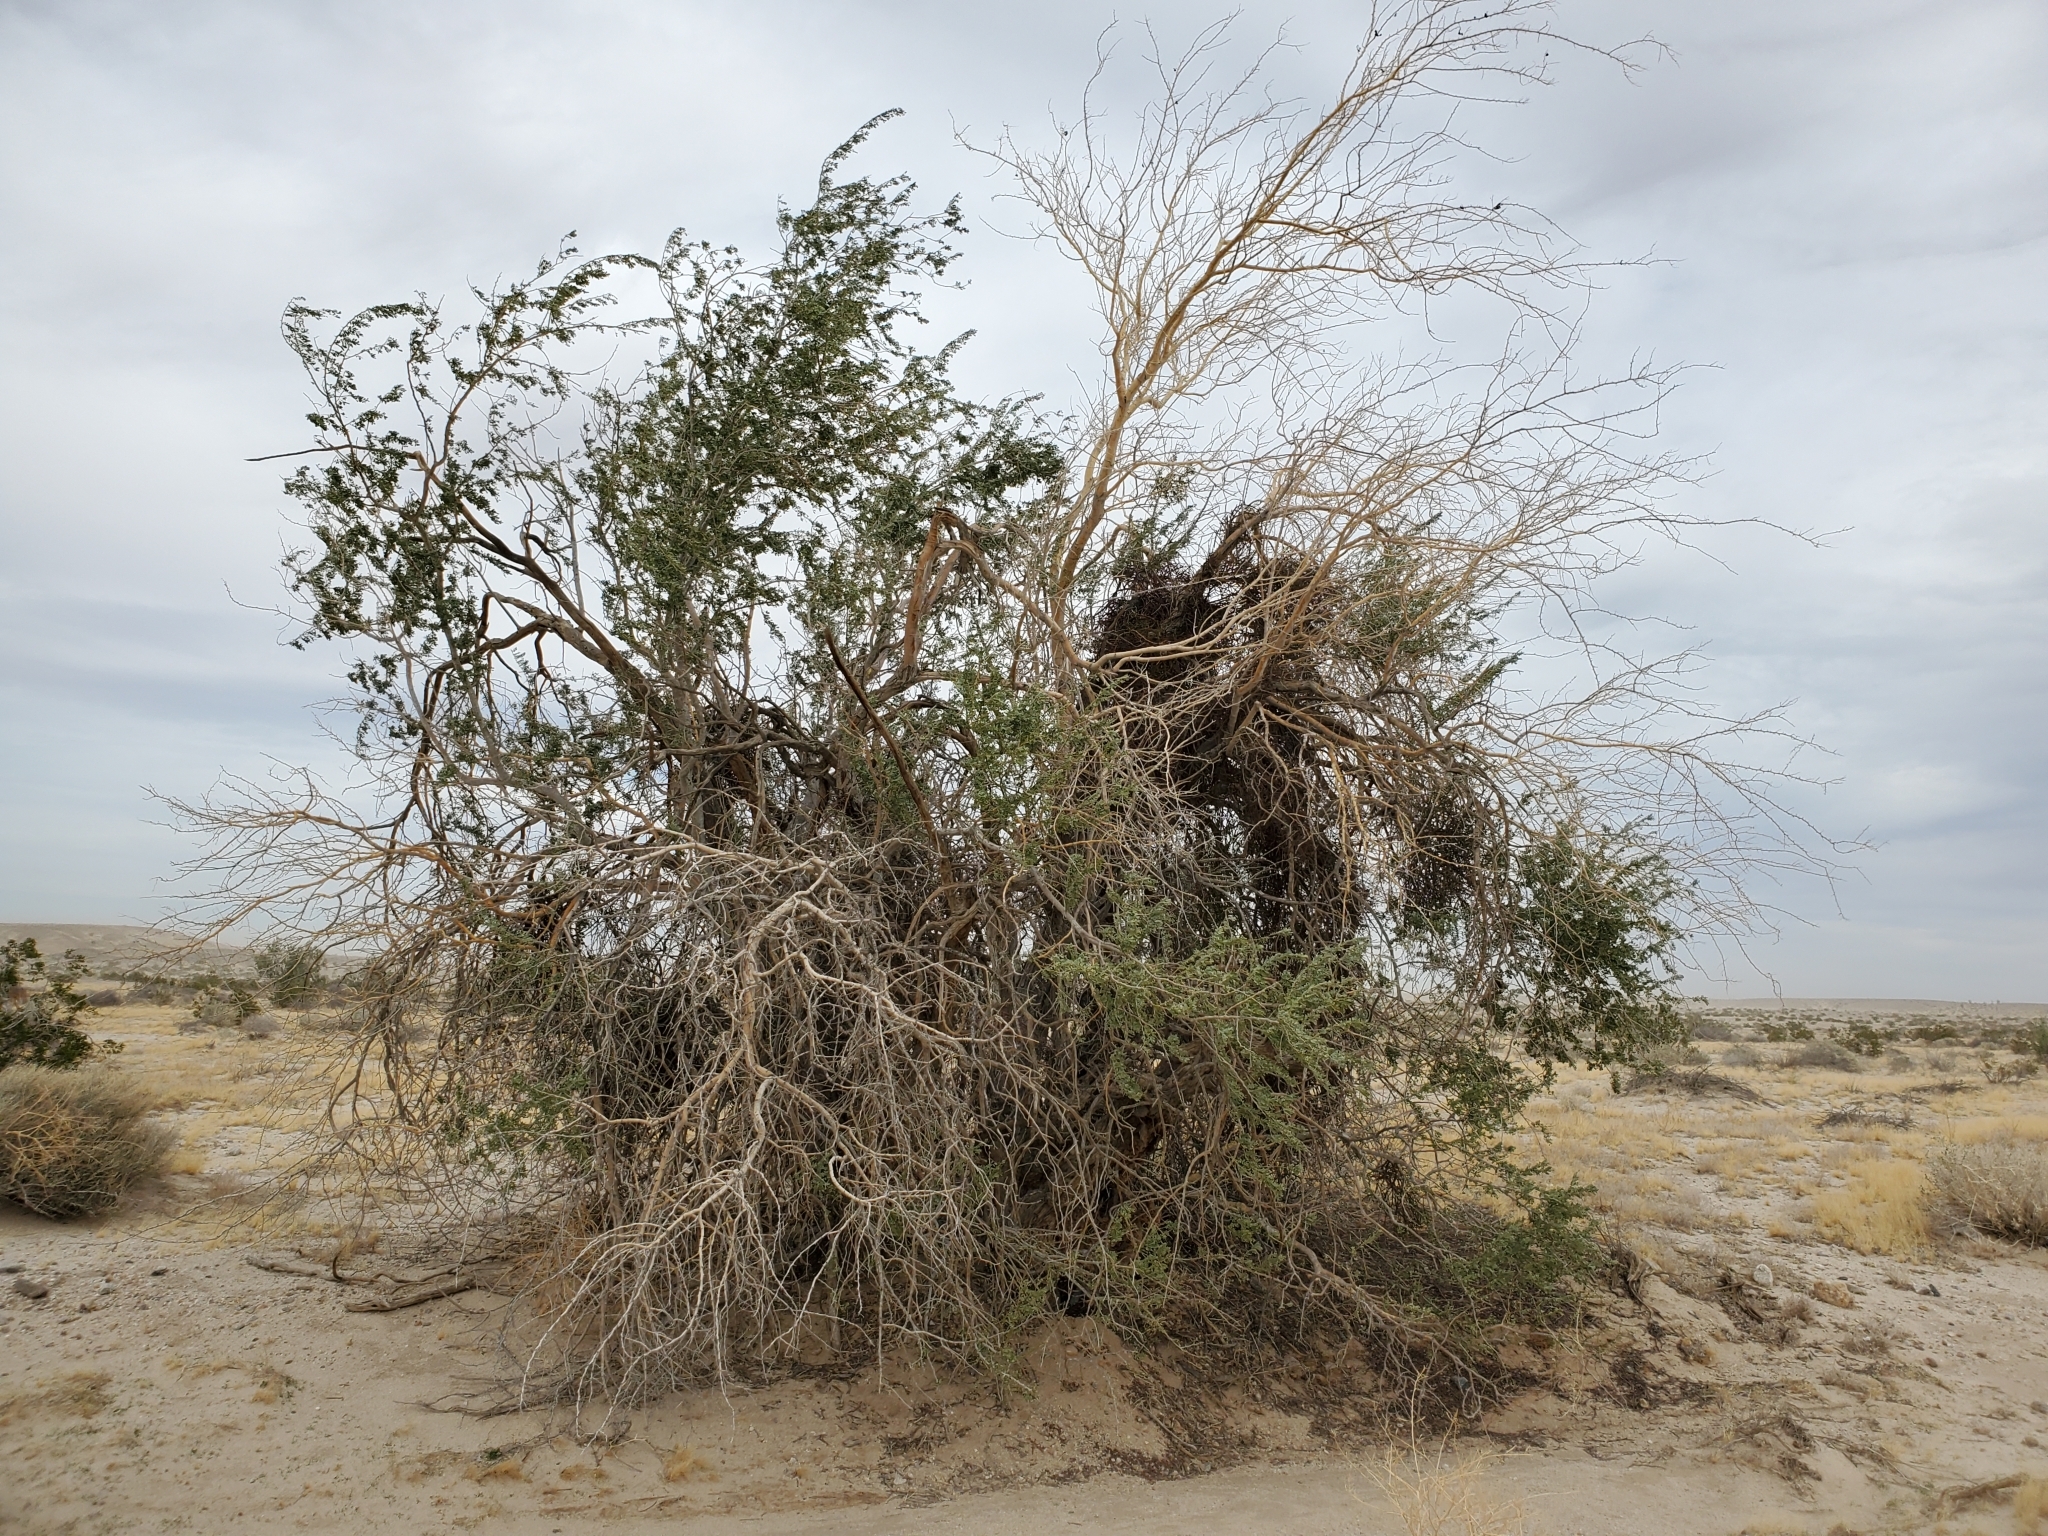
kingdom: Plantae
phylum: Tracheophyta
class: Magnoliopsida
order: Fabales
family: Fabaceae
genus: Olneya
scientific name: Olneya tesota
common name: Desert ironwood
